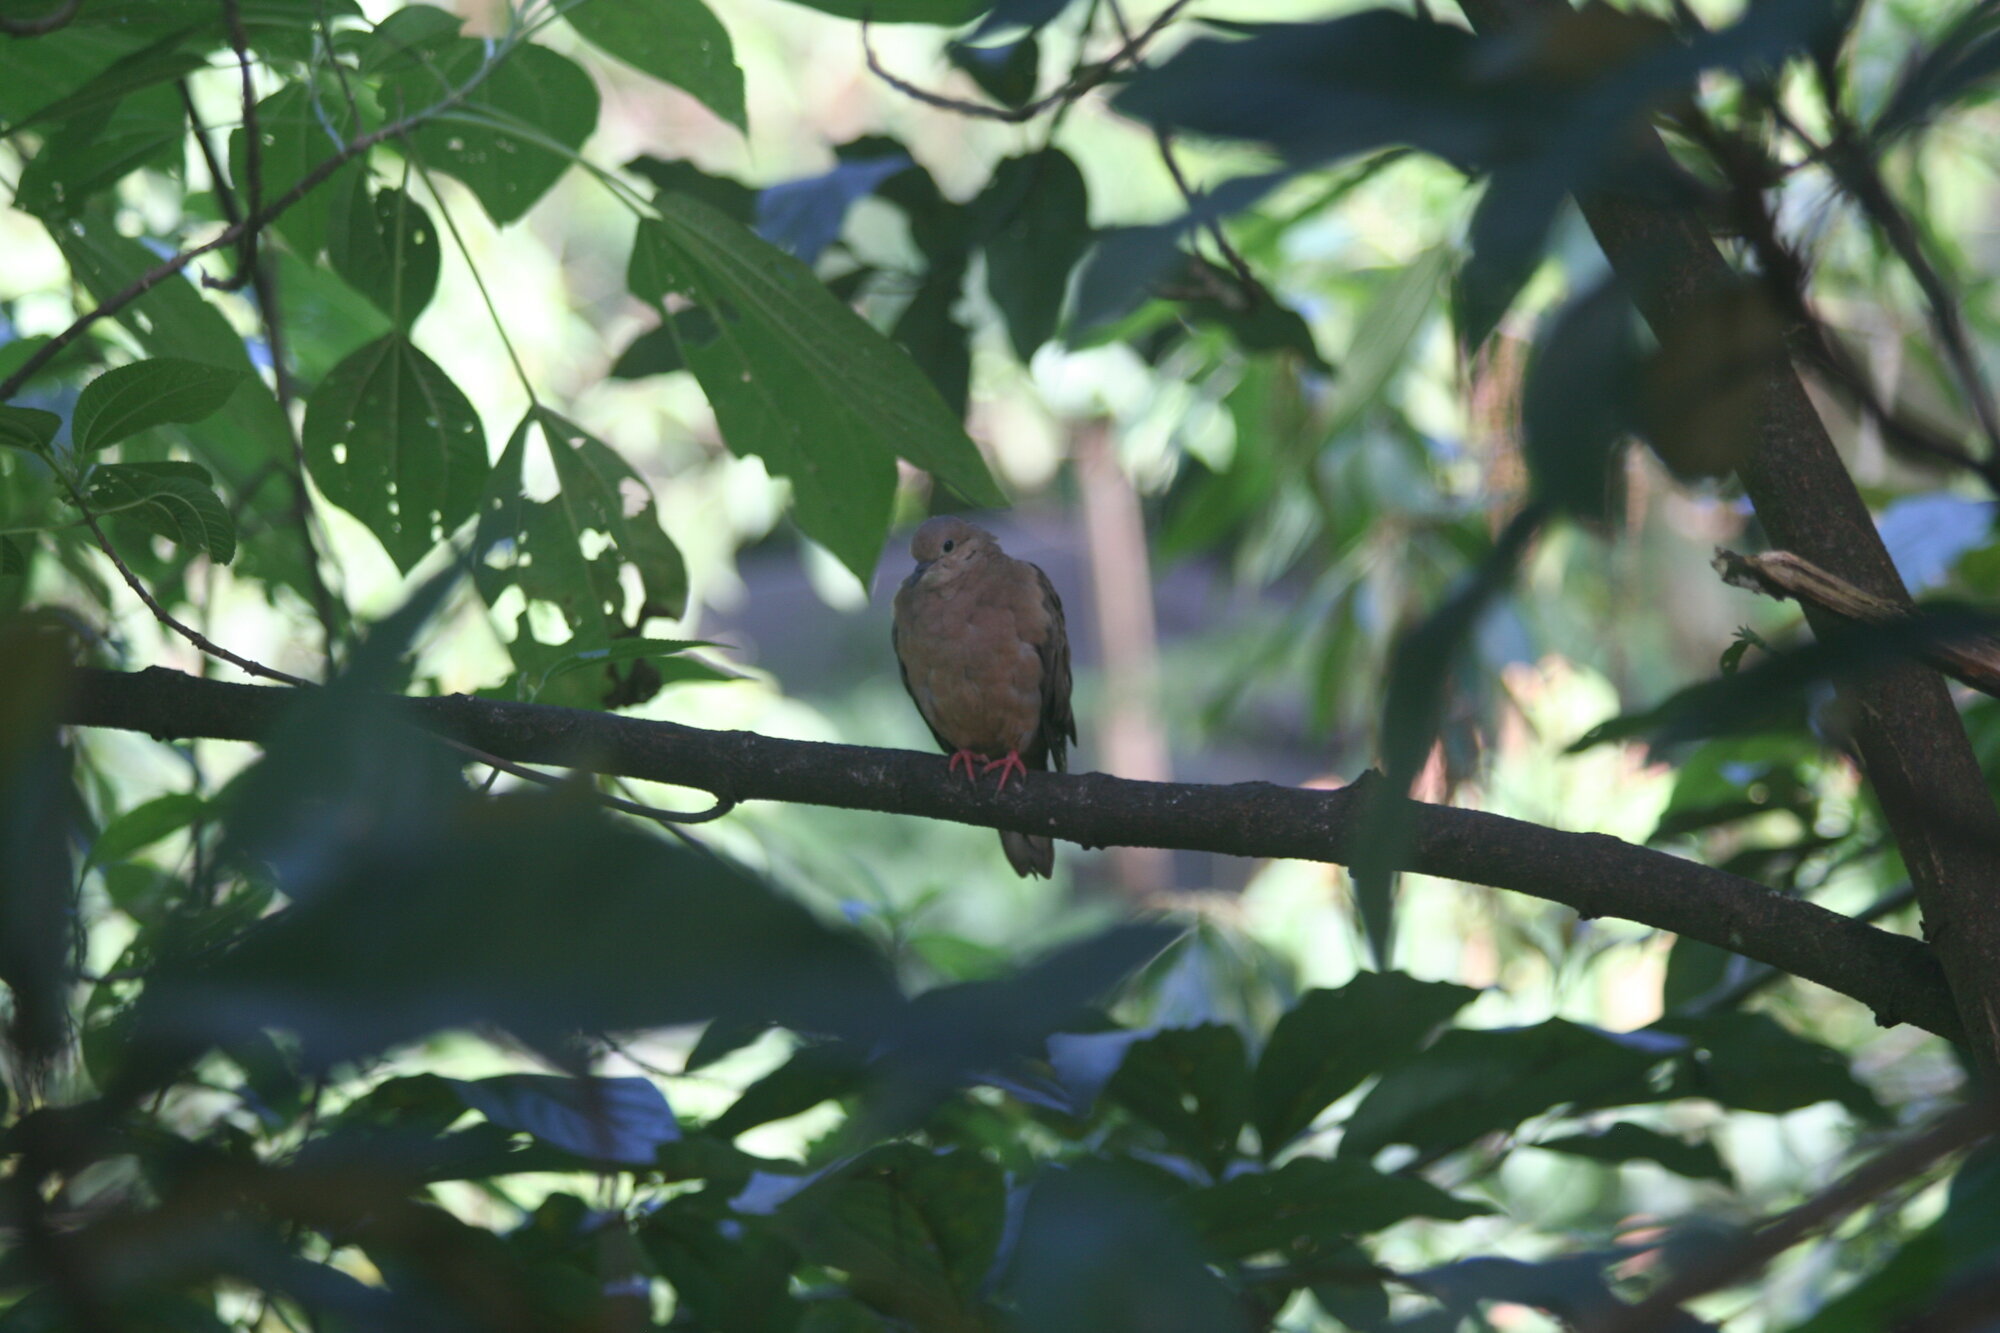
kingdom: Animalia
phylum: Chordata
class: Aves
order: Columbiformes
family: Columbidae
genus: Zenaida
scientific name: Zenaida auriculata
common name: Eared dove
